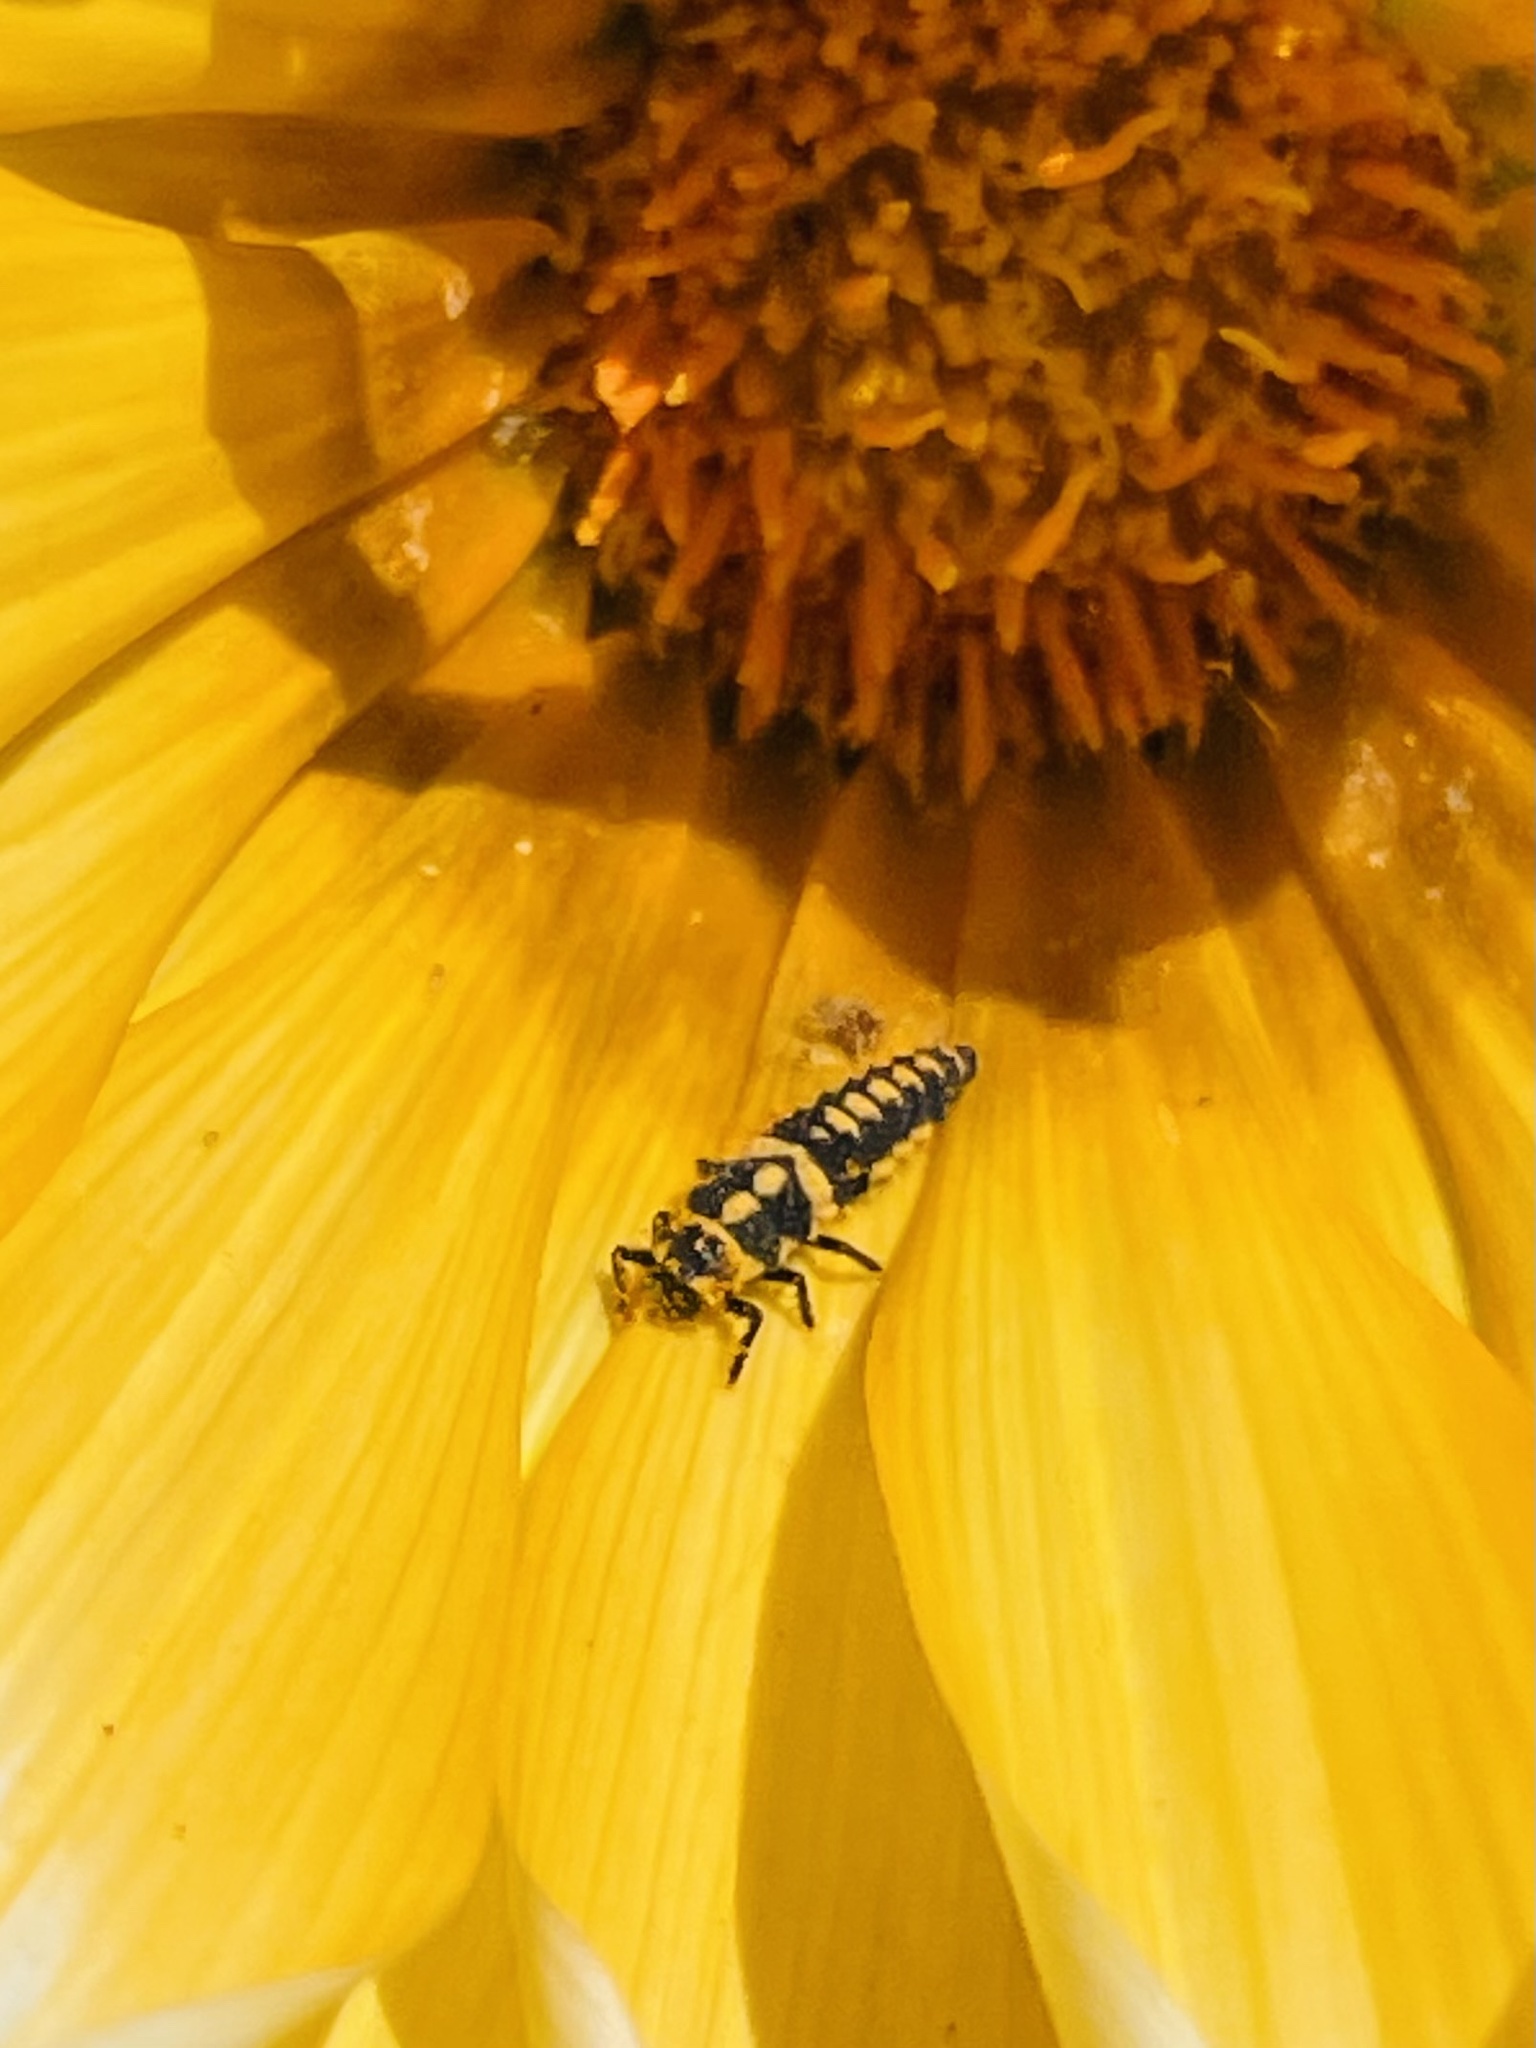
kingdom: Animalia
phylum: Arthropoda
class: Insecta
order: Coleoptera
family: Coccinellidae
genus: Eriopis
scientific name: Eriopis chilensis
